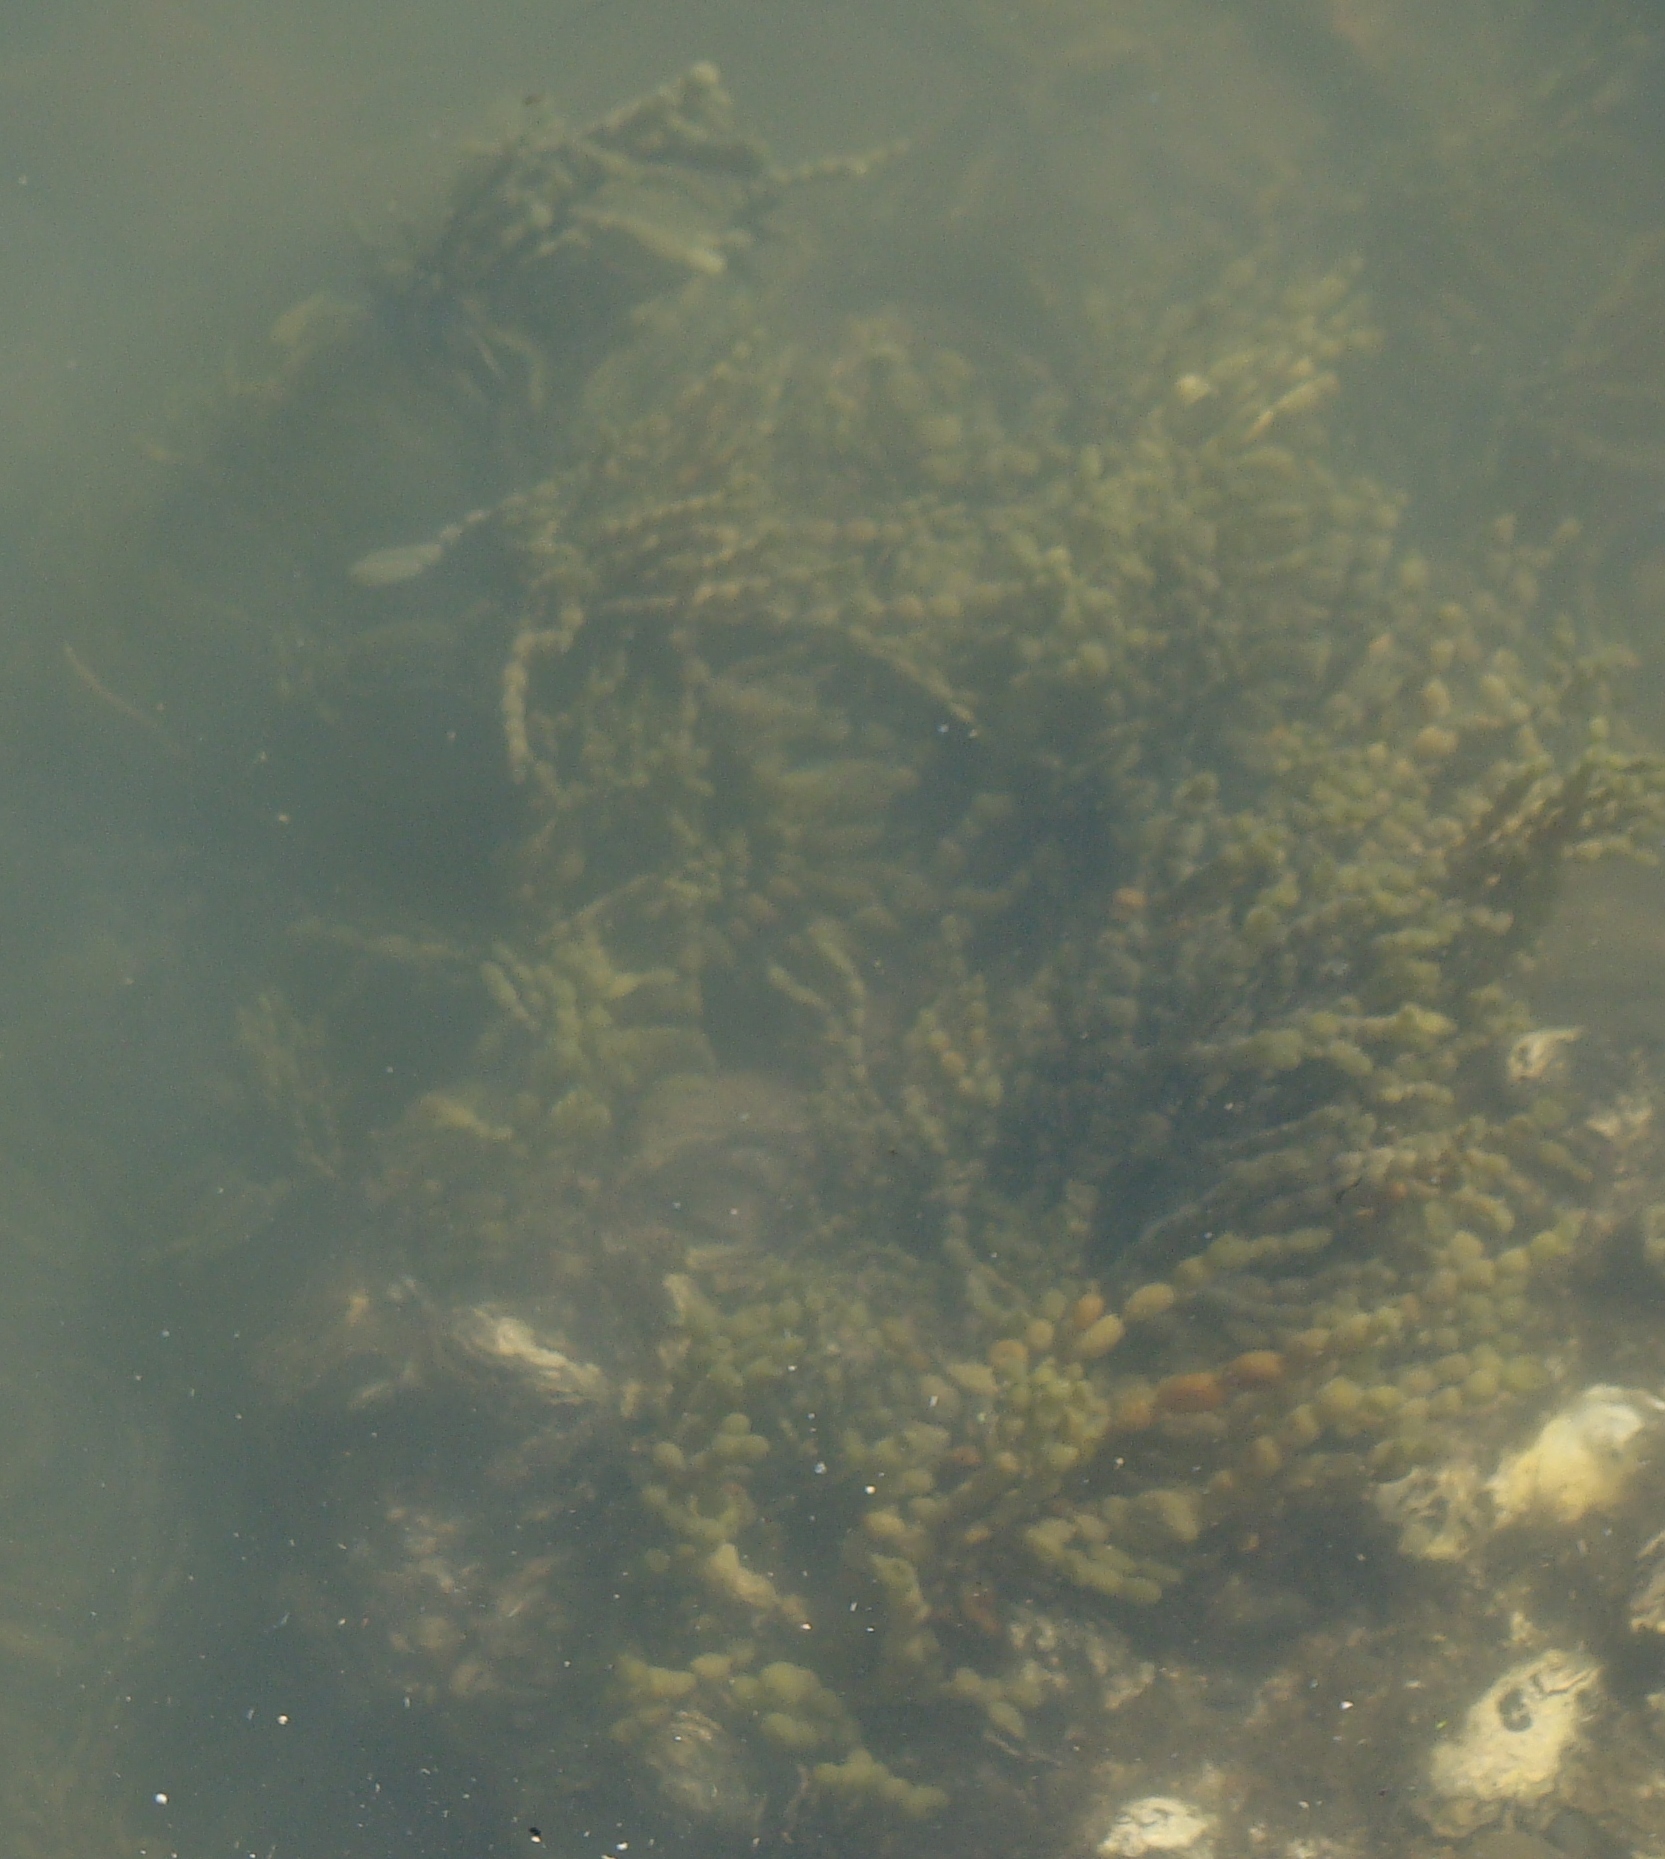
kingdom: Chromista
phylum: Ochrophyta
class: Phaeophyceae
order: Fucales
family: Hormosiraceae
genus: Hormosira
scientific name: Hormosira banksii
